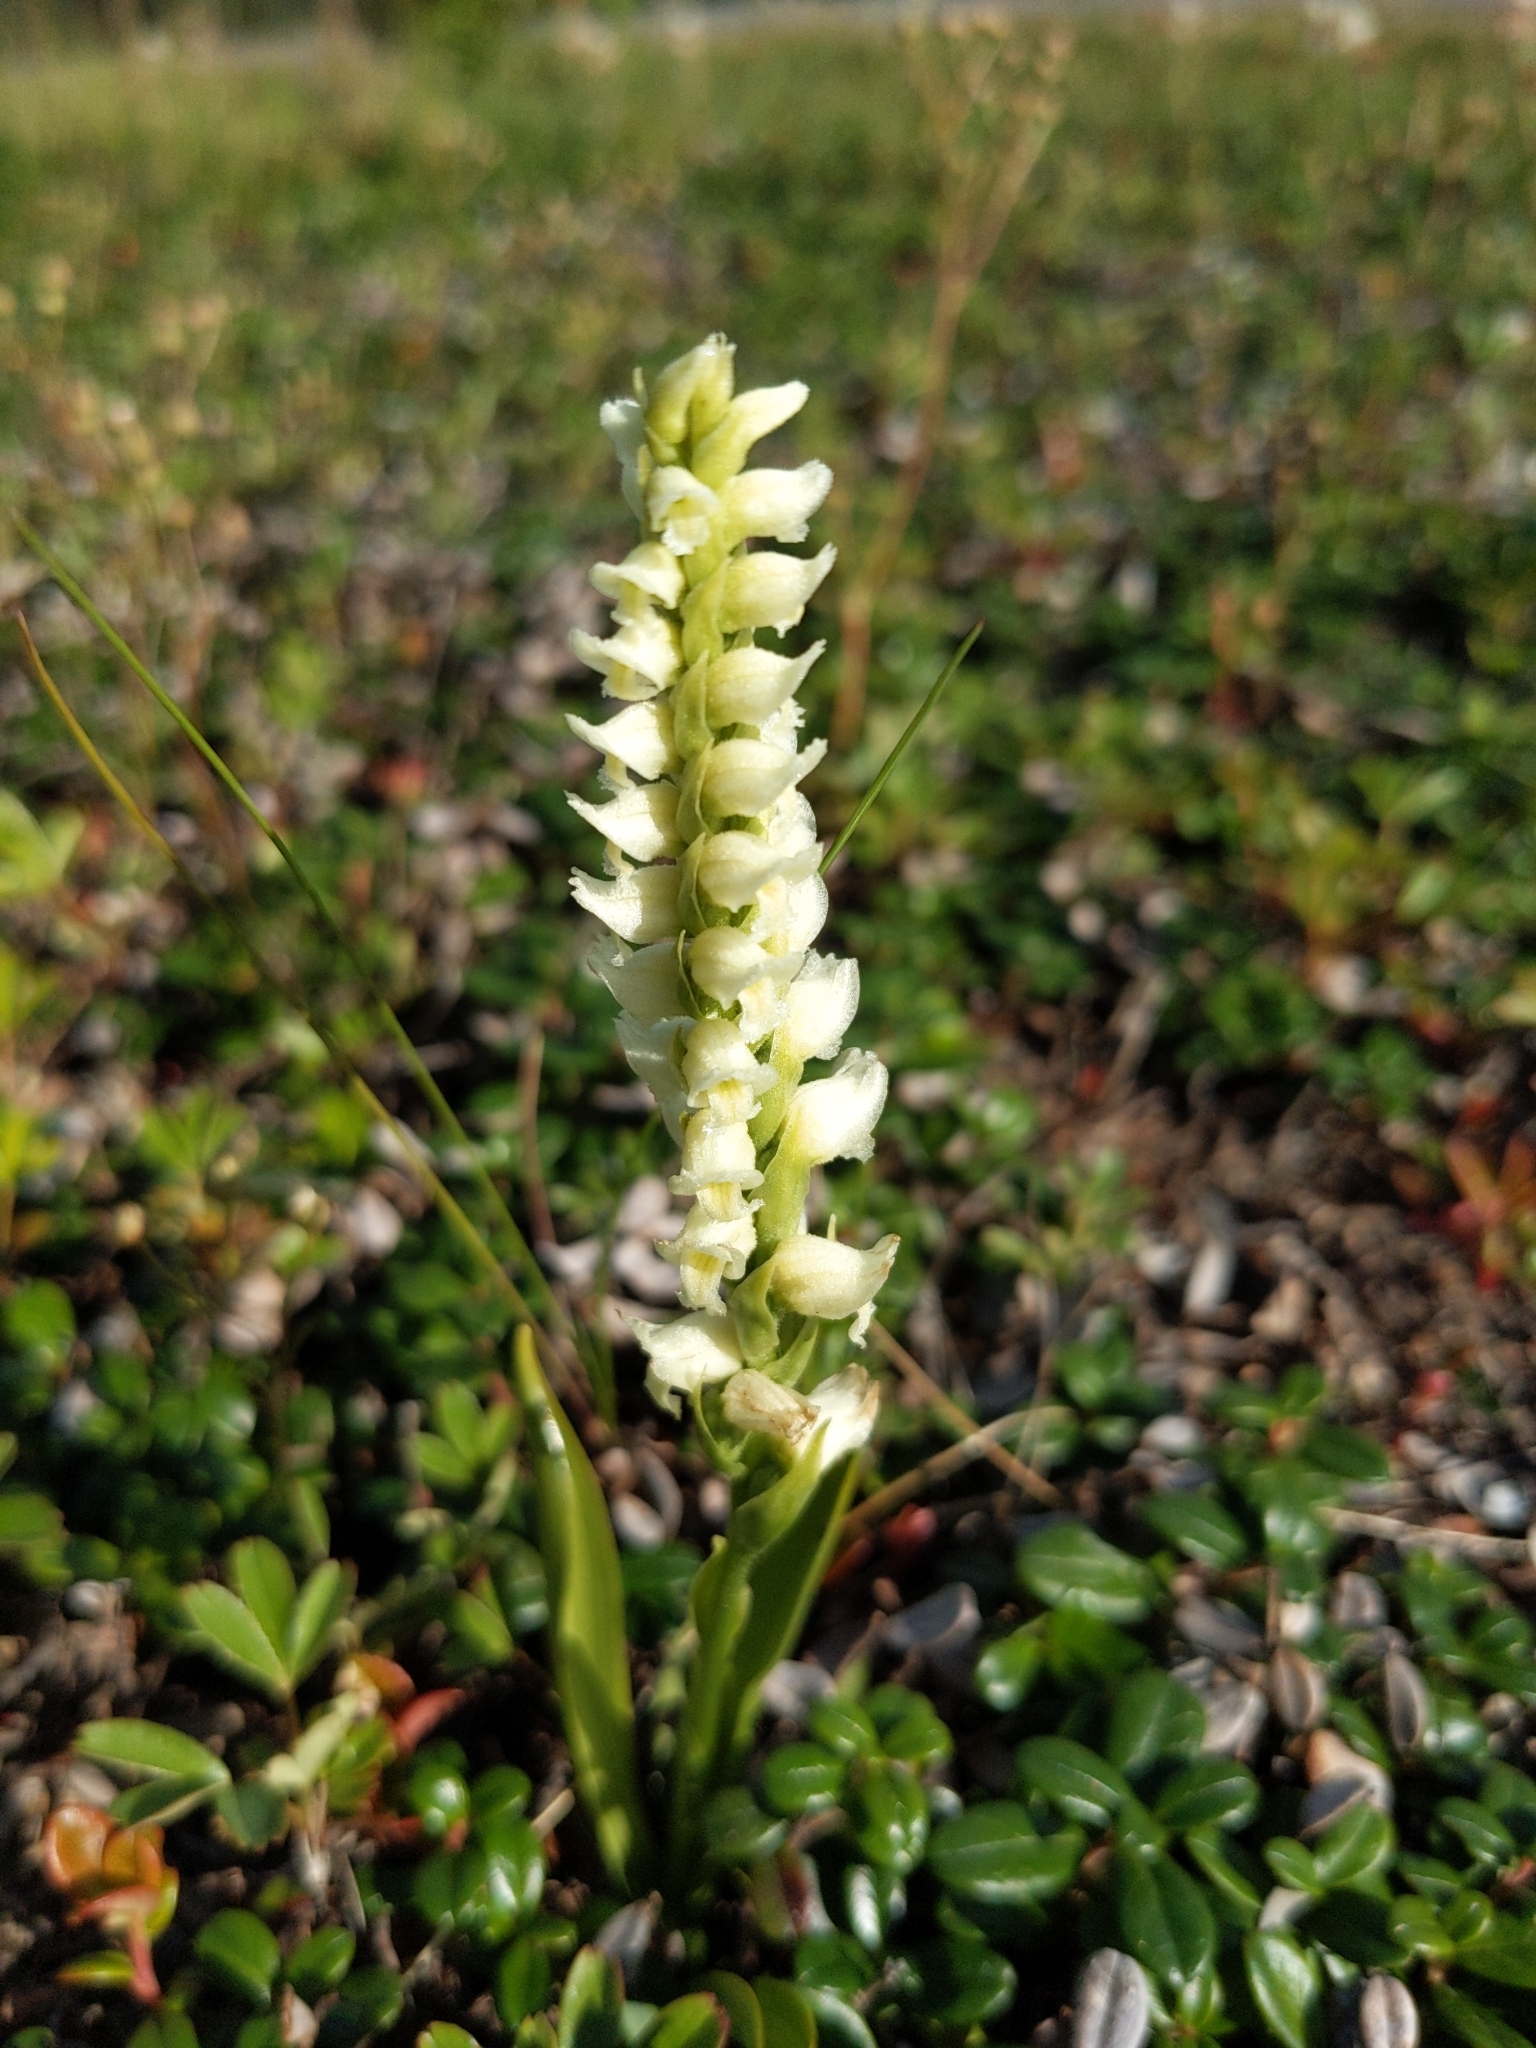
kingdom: Plantae
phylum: Tracheophyta
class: Liliopsida
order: Asparagales
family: Orchidaceae
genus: Spiranthes
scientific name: Spiranthes romanzoffiana
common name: Irish lady's-tresses
